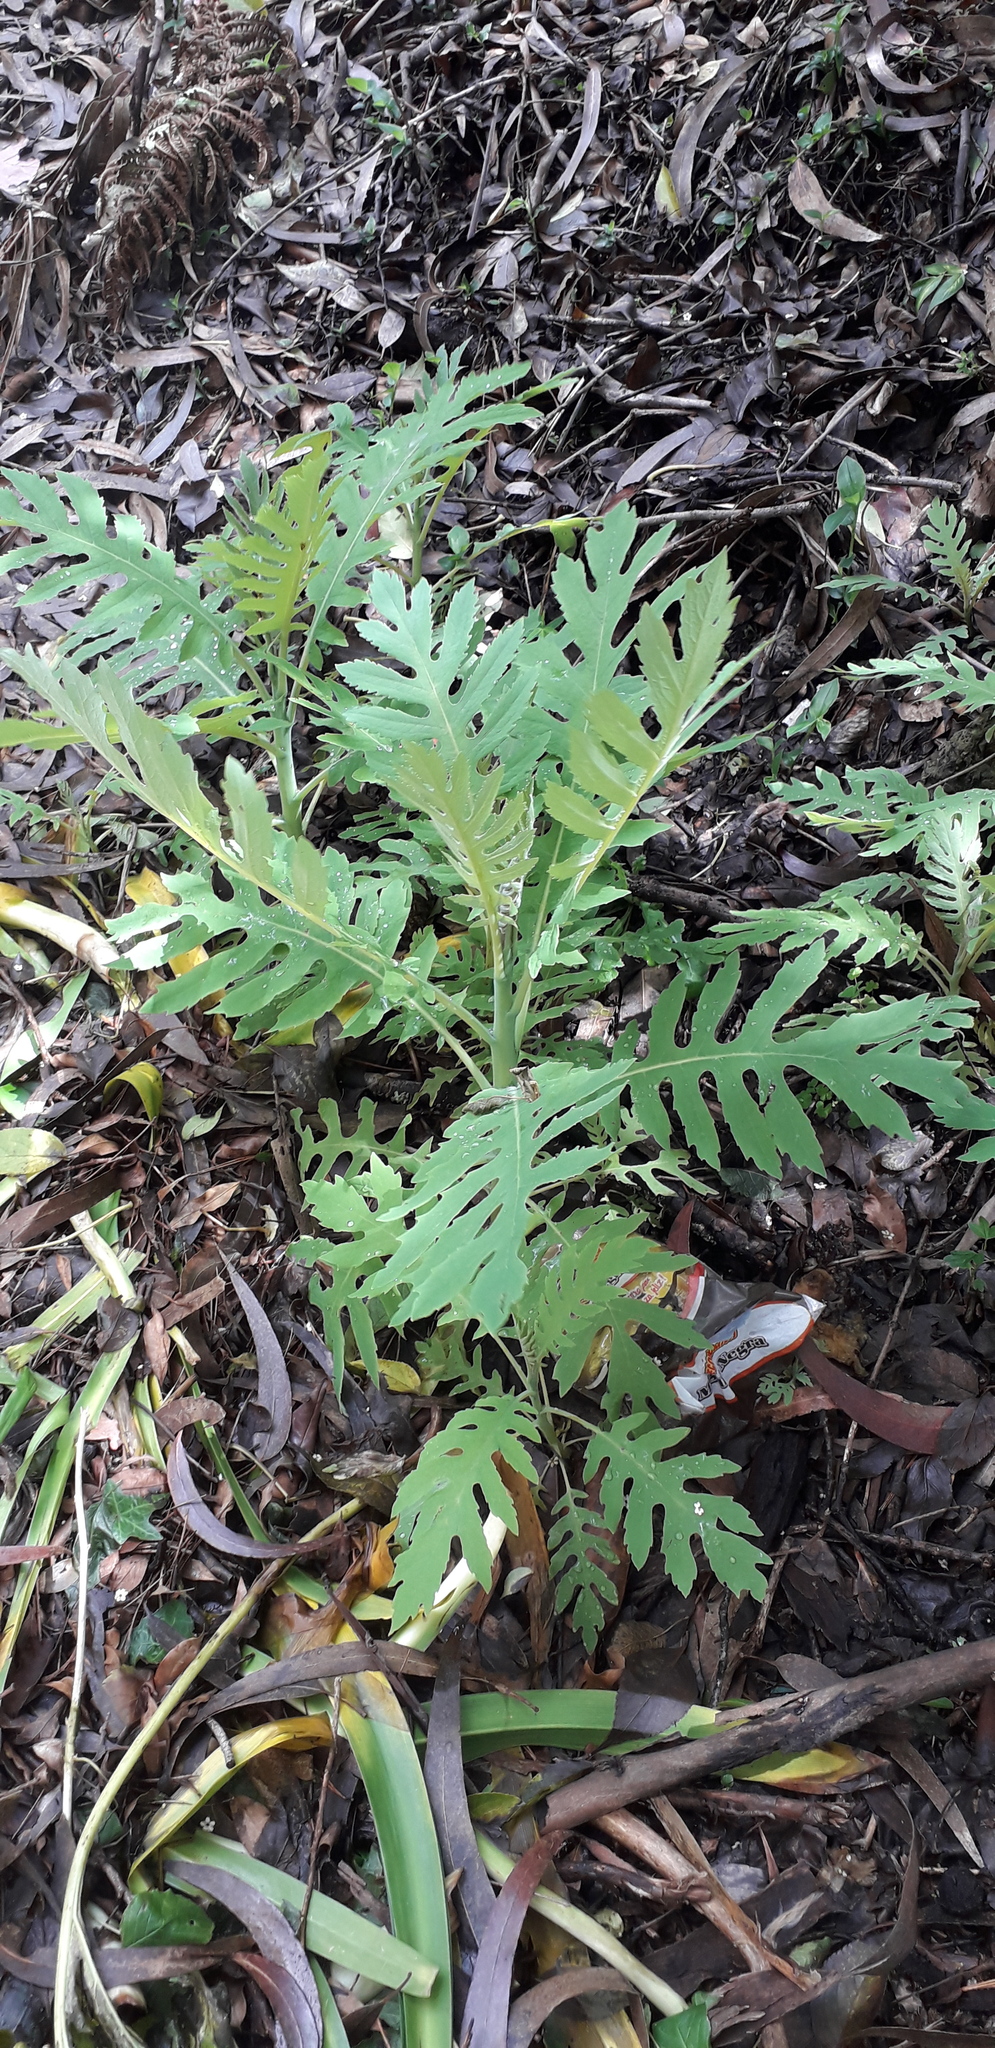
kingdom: Plantae
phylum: Tracheophyta
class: Magnoliopsida
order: Ranunculales
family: Papaveraceae
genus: Bocconia
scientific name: Bocconia frutescens
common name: Tree poppy
